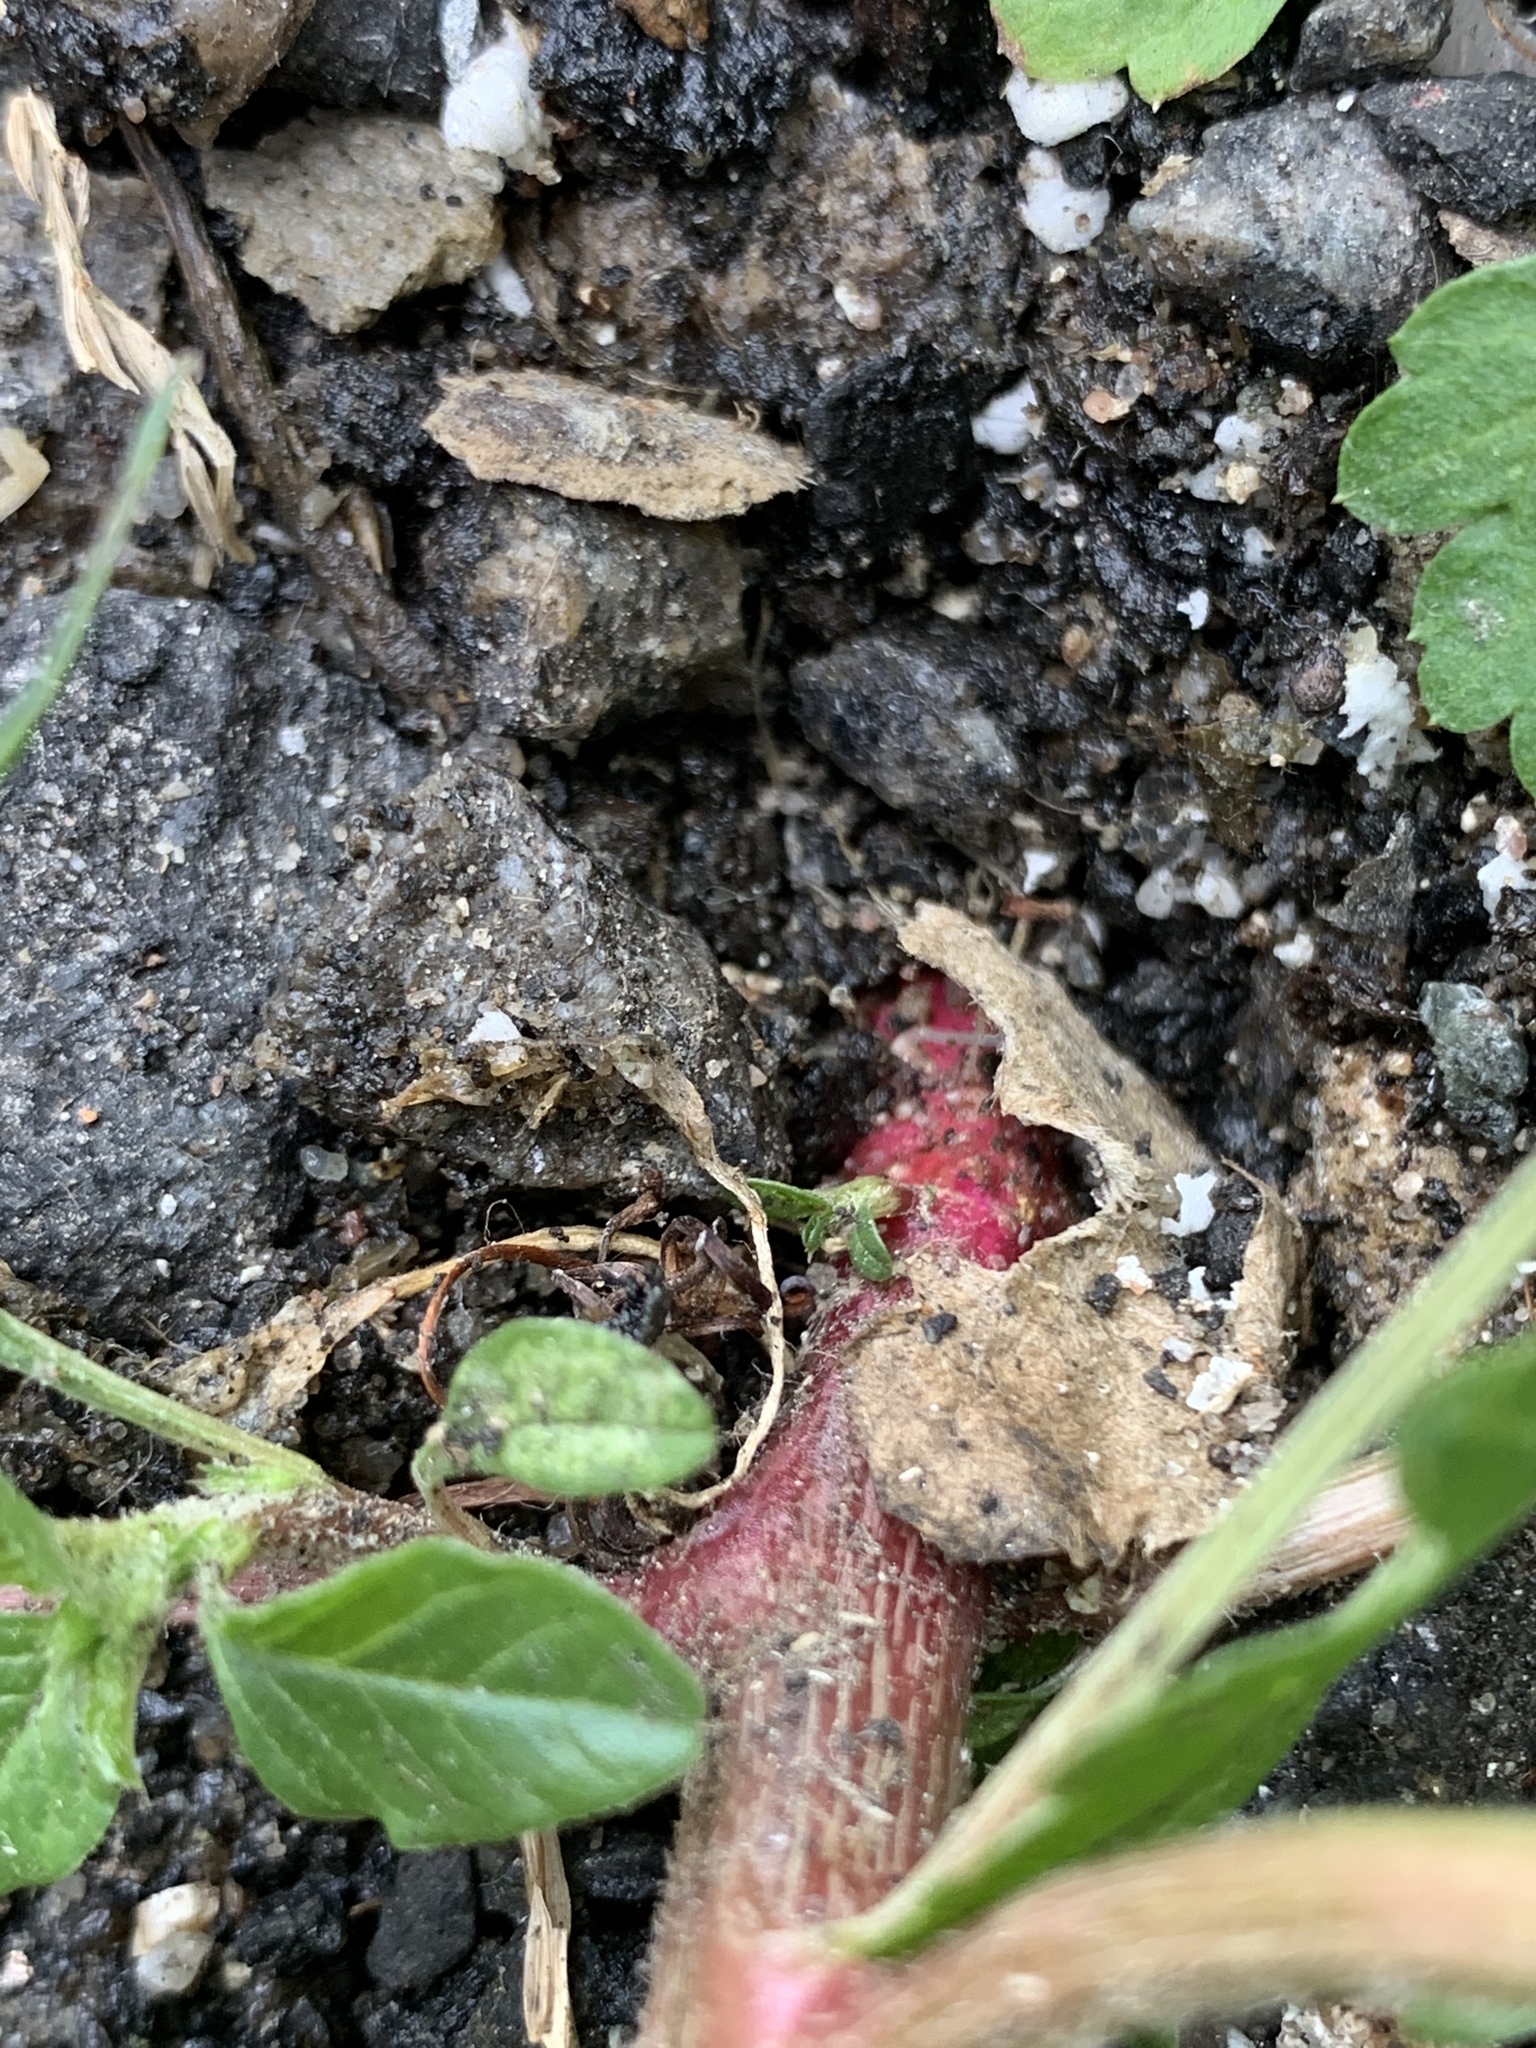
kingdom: Plantae
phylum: Tracheophyta
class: Magnoliopsida
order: Caryophyllales
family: Amaranthaceae
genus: Amaranthus
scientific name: Amaranthus retroflexus
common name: Redroot amaranth
